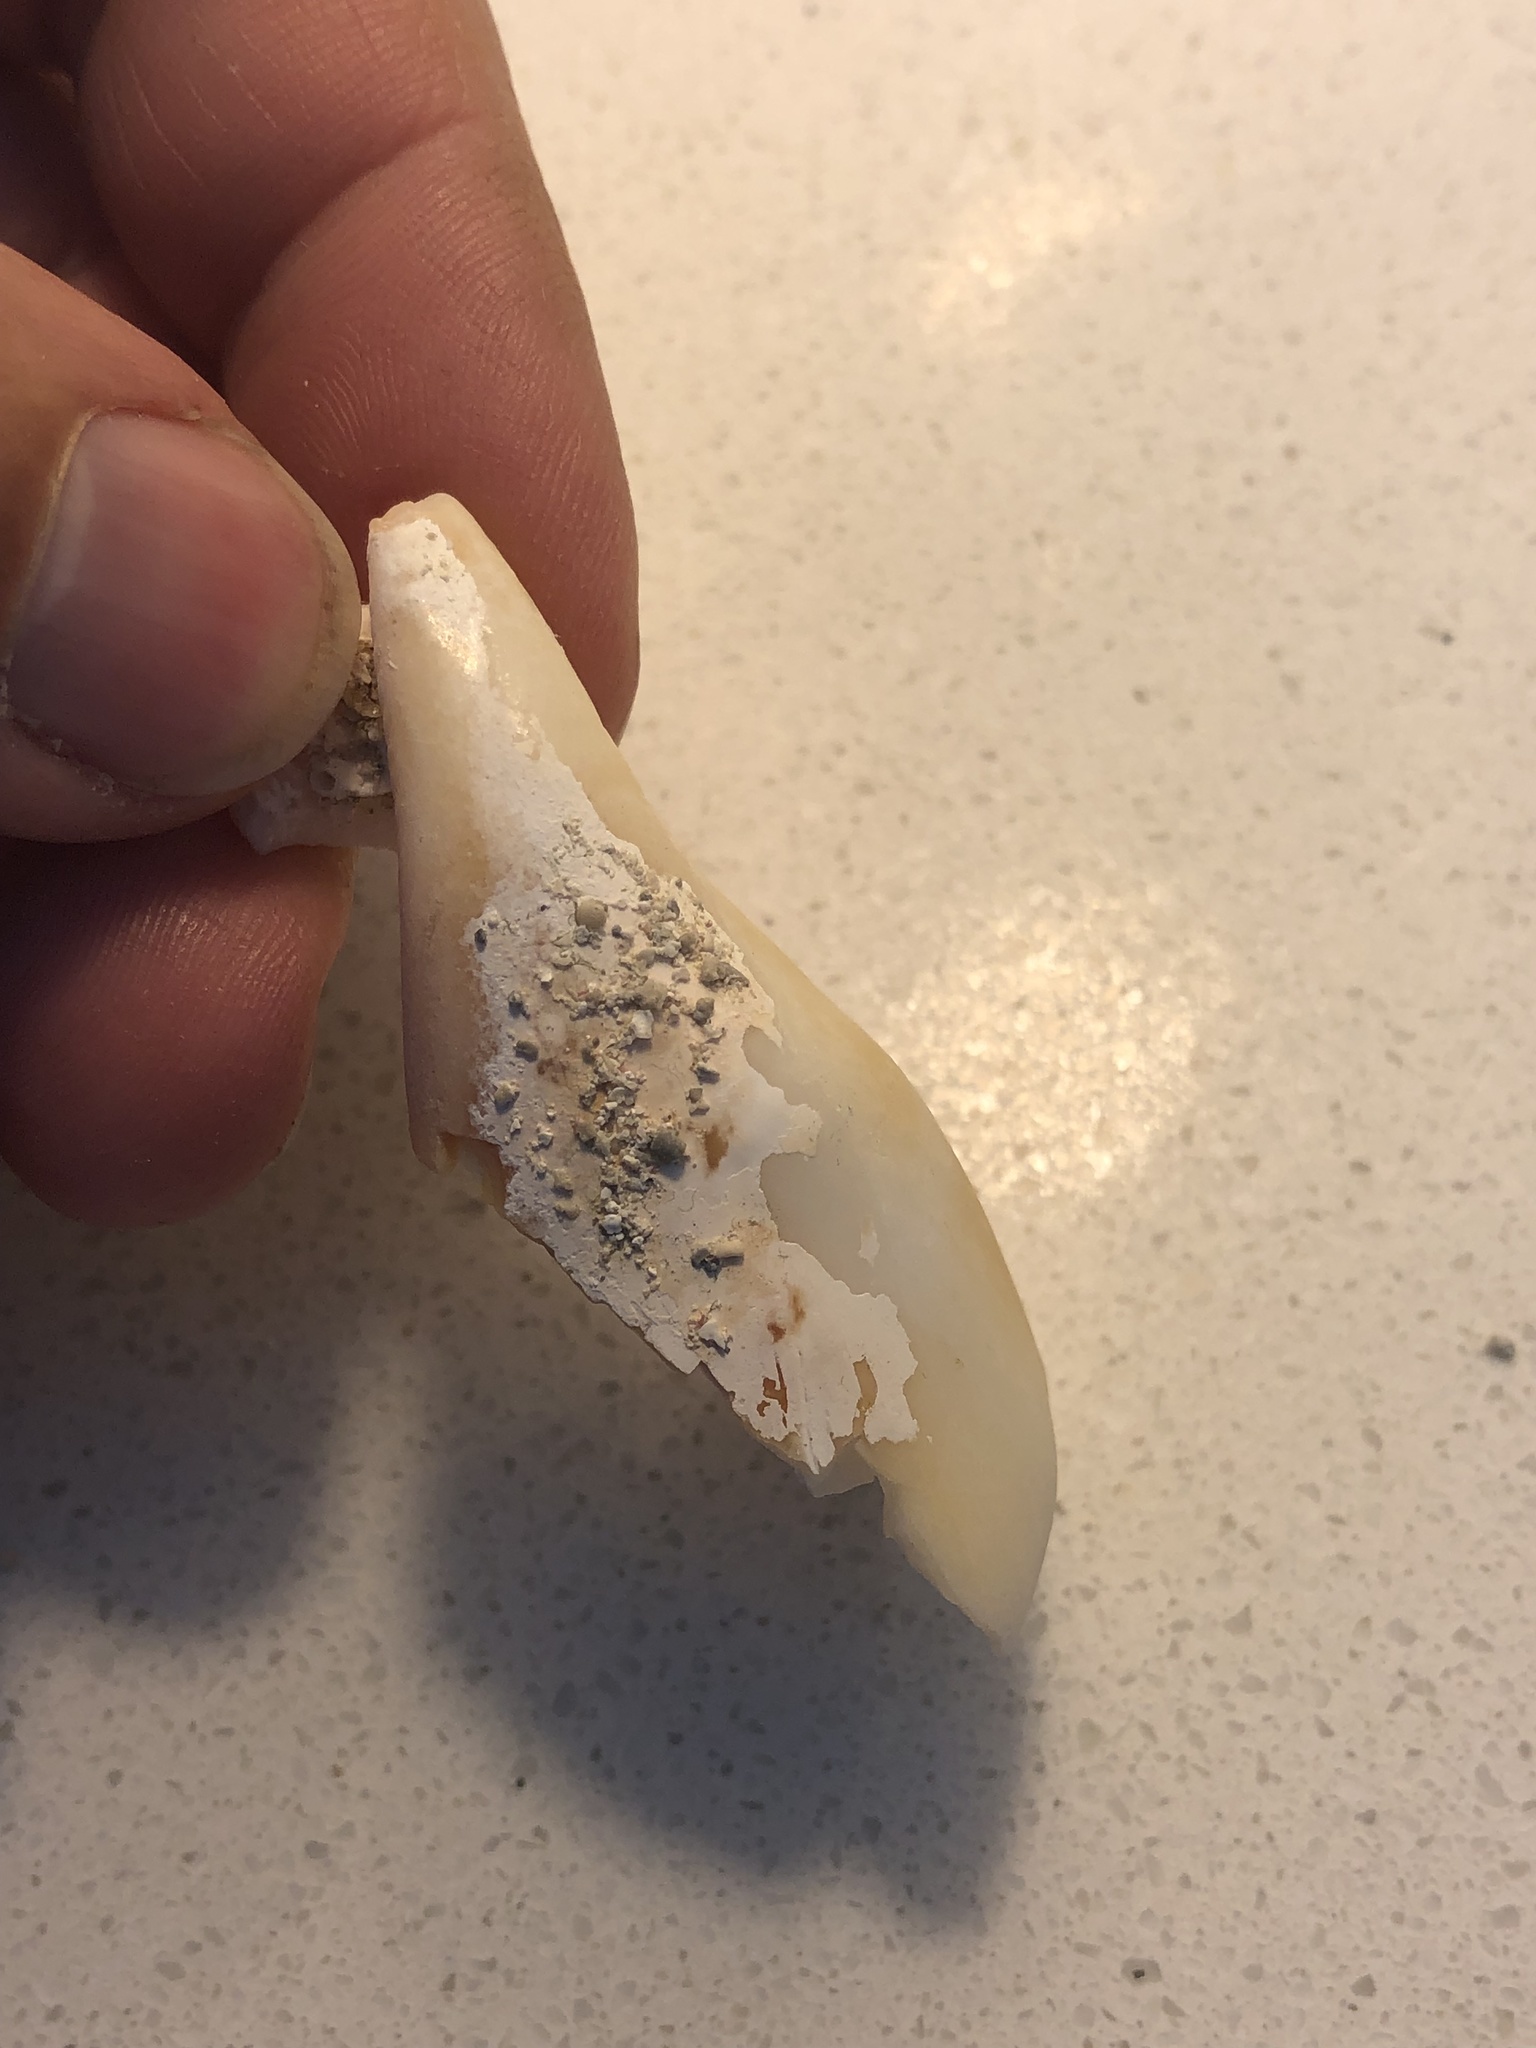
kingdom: Animalia
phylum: Mollusca
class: Gastropoda
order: Littorinimorpha
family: Strombidae
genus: Strombus
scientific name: Strombus alatus
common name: Florida fighting conch
